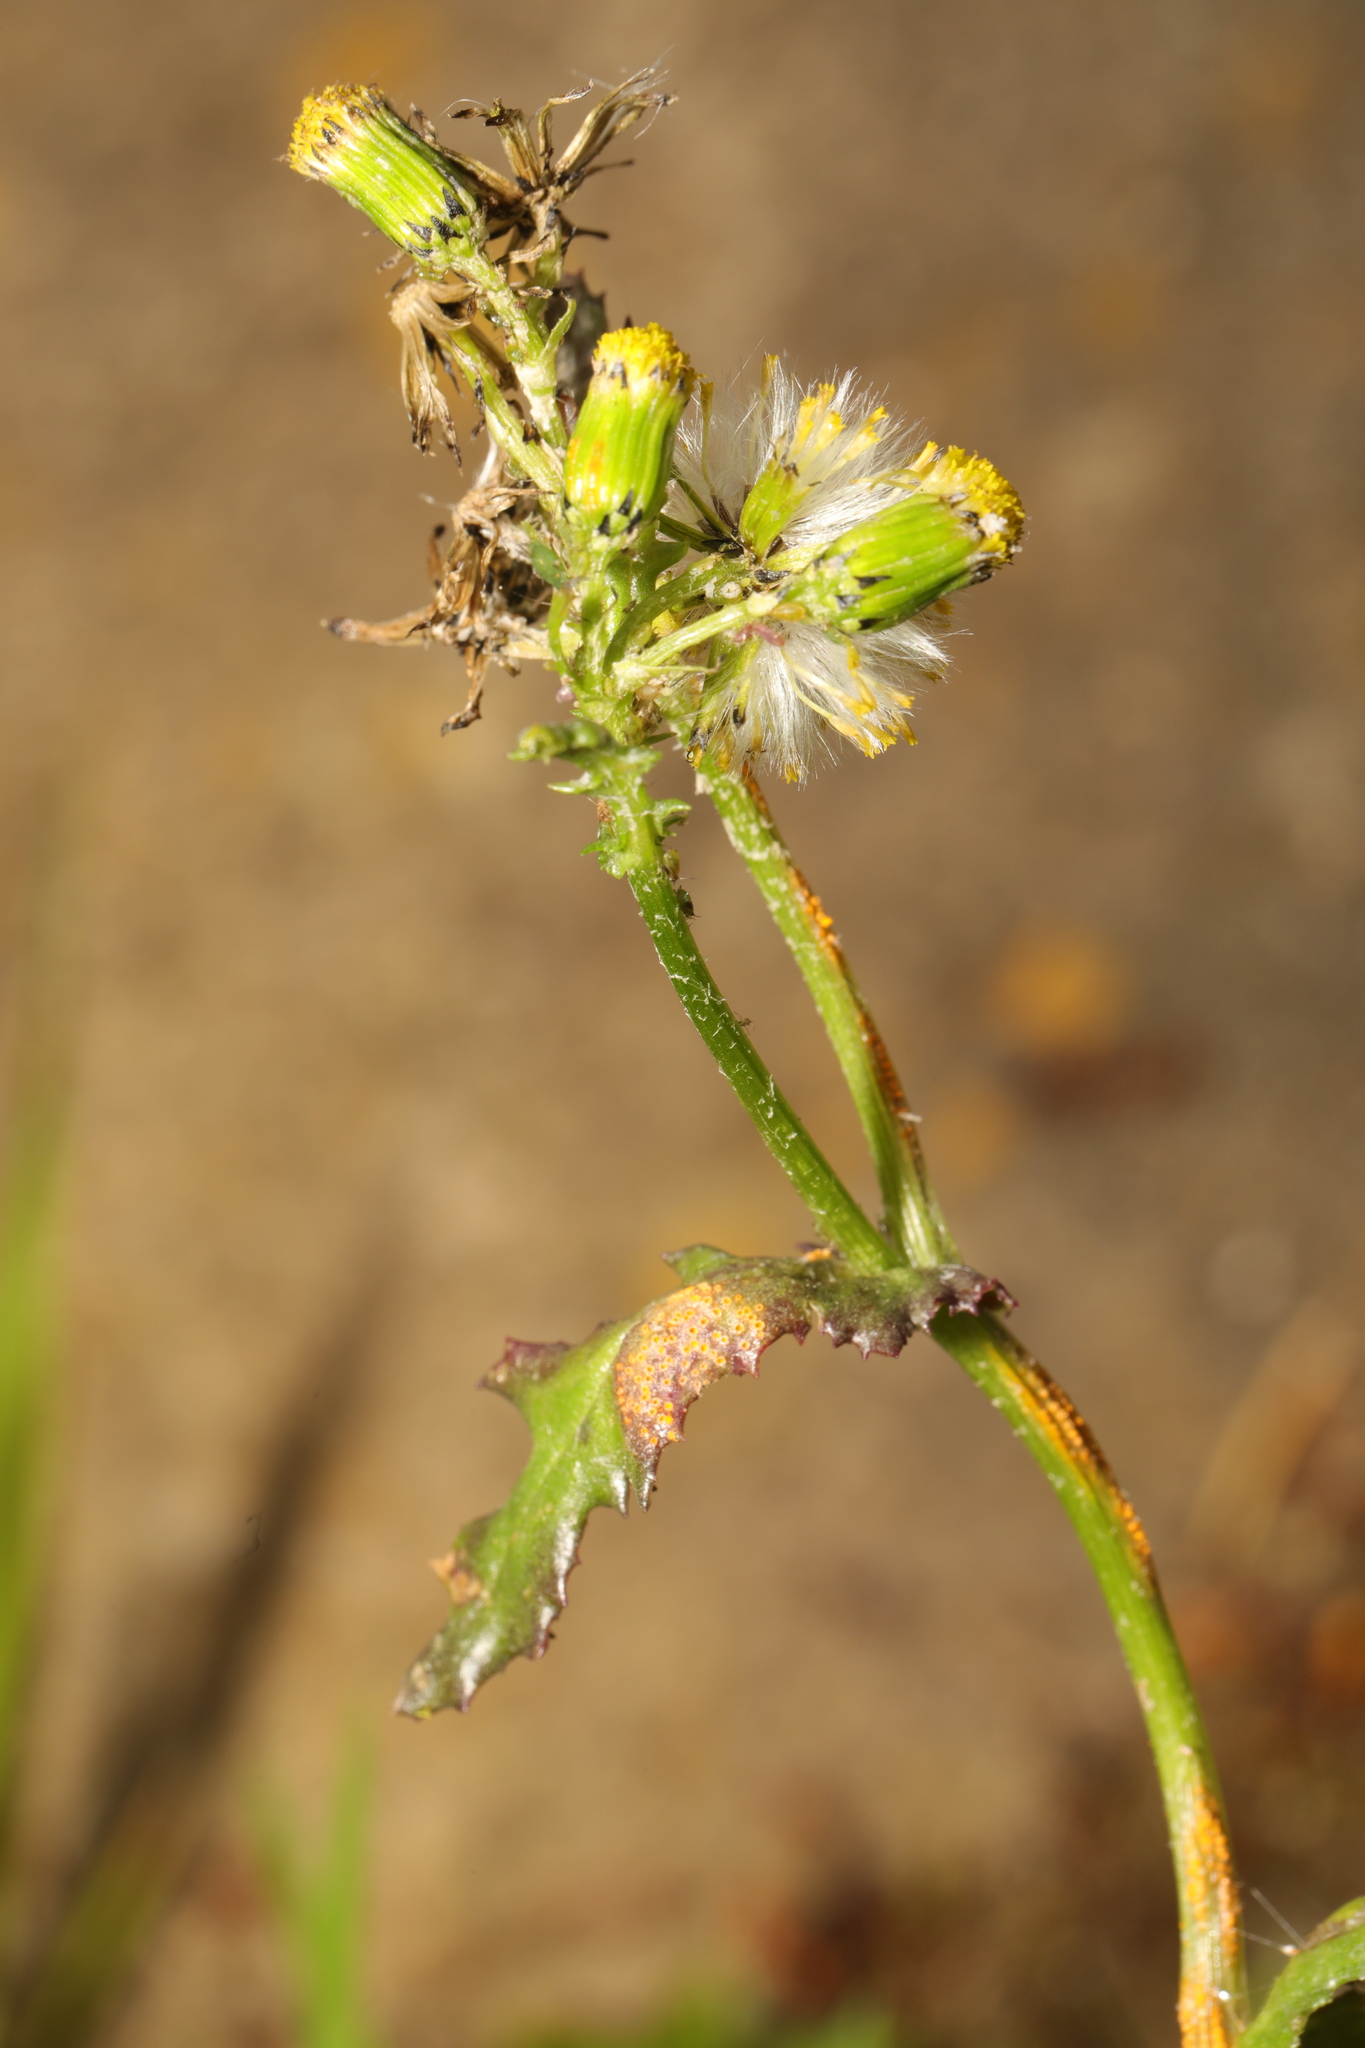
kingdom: Plantae
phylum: Tracheophyta
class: Magnoliopsida
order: Asterales
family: Asteraceae
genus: Senecio
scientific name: Senecio vulgaris
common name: Old-man-in-the-spring
